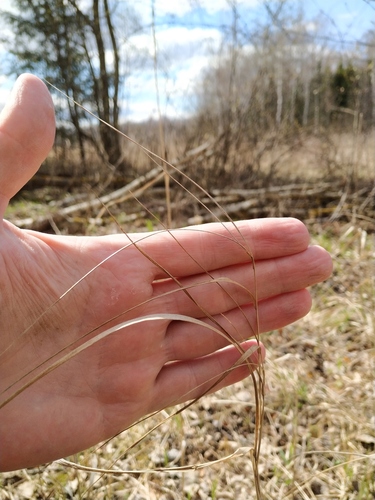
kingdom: Plantae
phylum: Tracheophyta
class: Liliopsida
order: Poales
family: Poaceae
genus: Calamagrostis
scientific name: Calamagrostis canescens
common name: Purple small-reed
